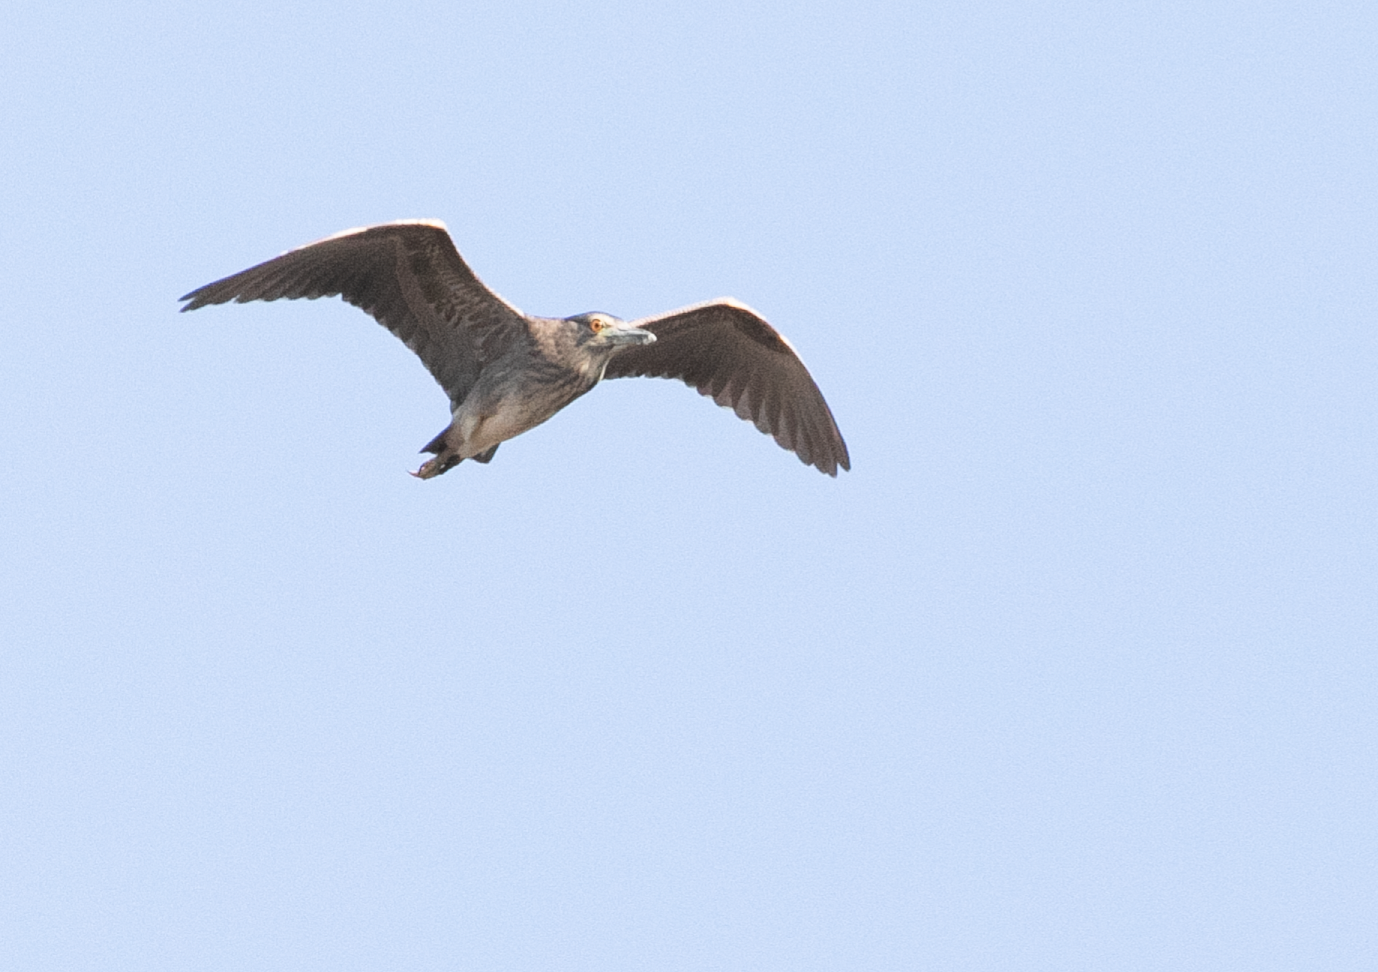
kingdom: Animalia
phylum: Chordata
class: Aves
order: Pelecaniformes
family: Ardeidae
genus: Nycticorax
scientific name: Nycticorax nycticorax
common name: Black-crowned night heron
